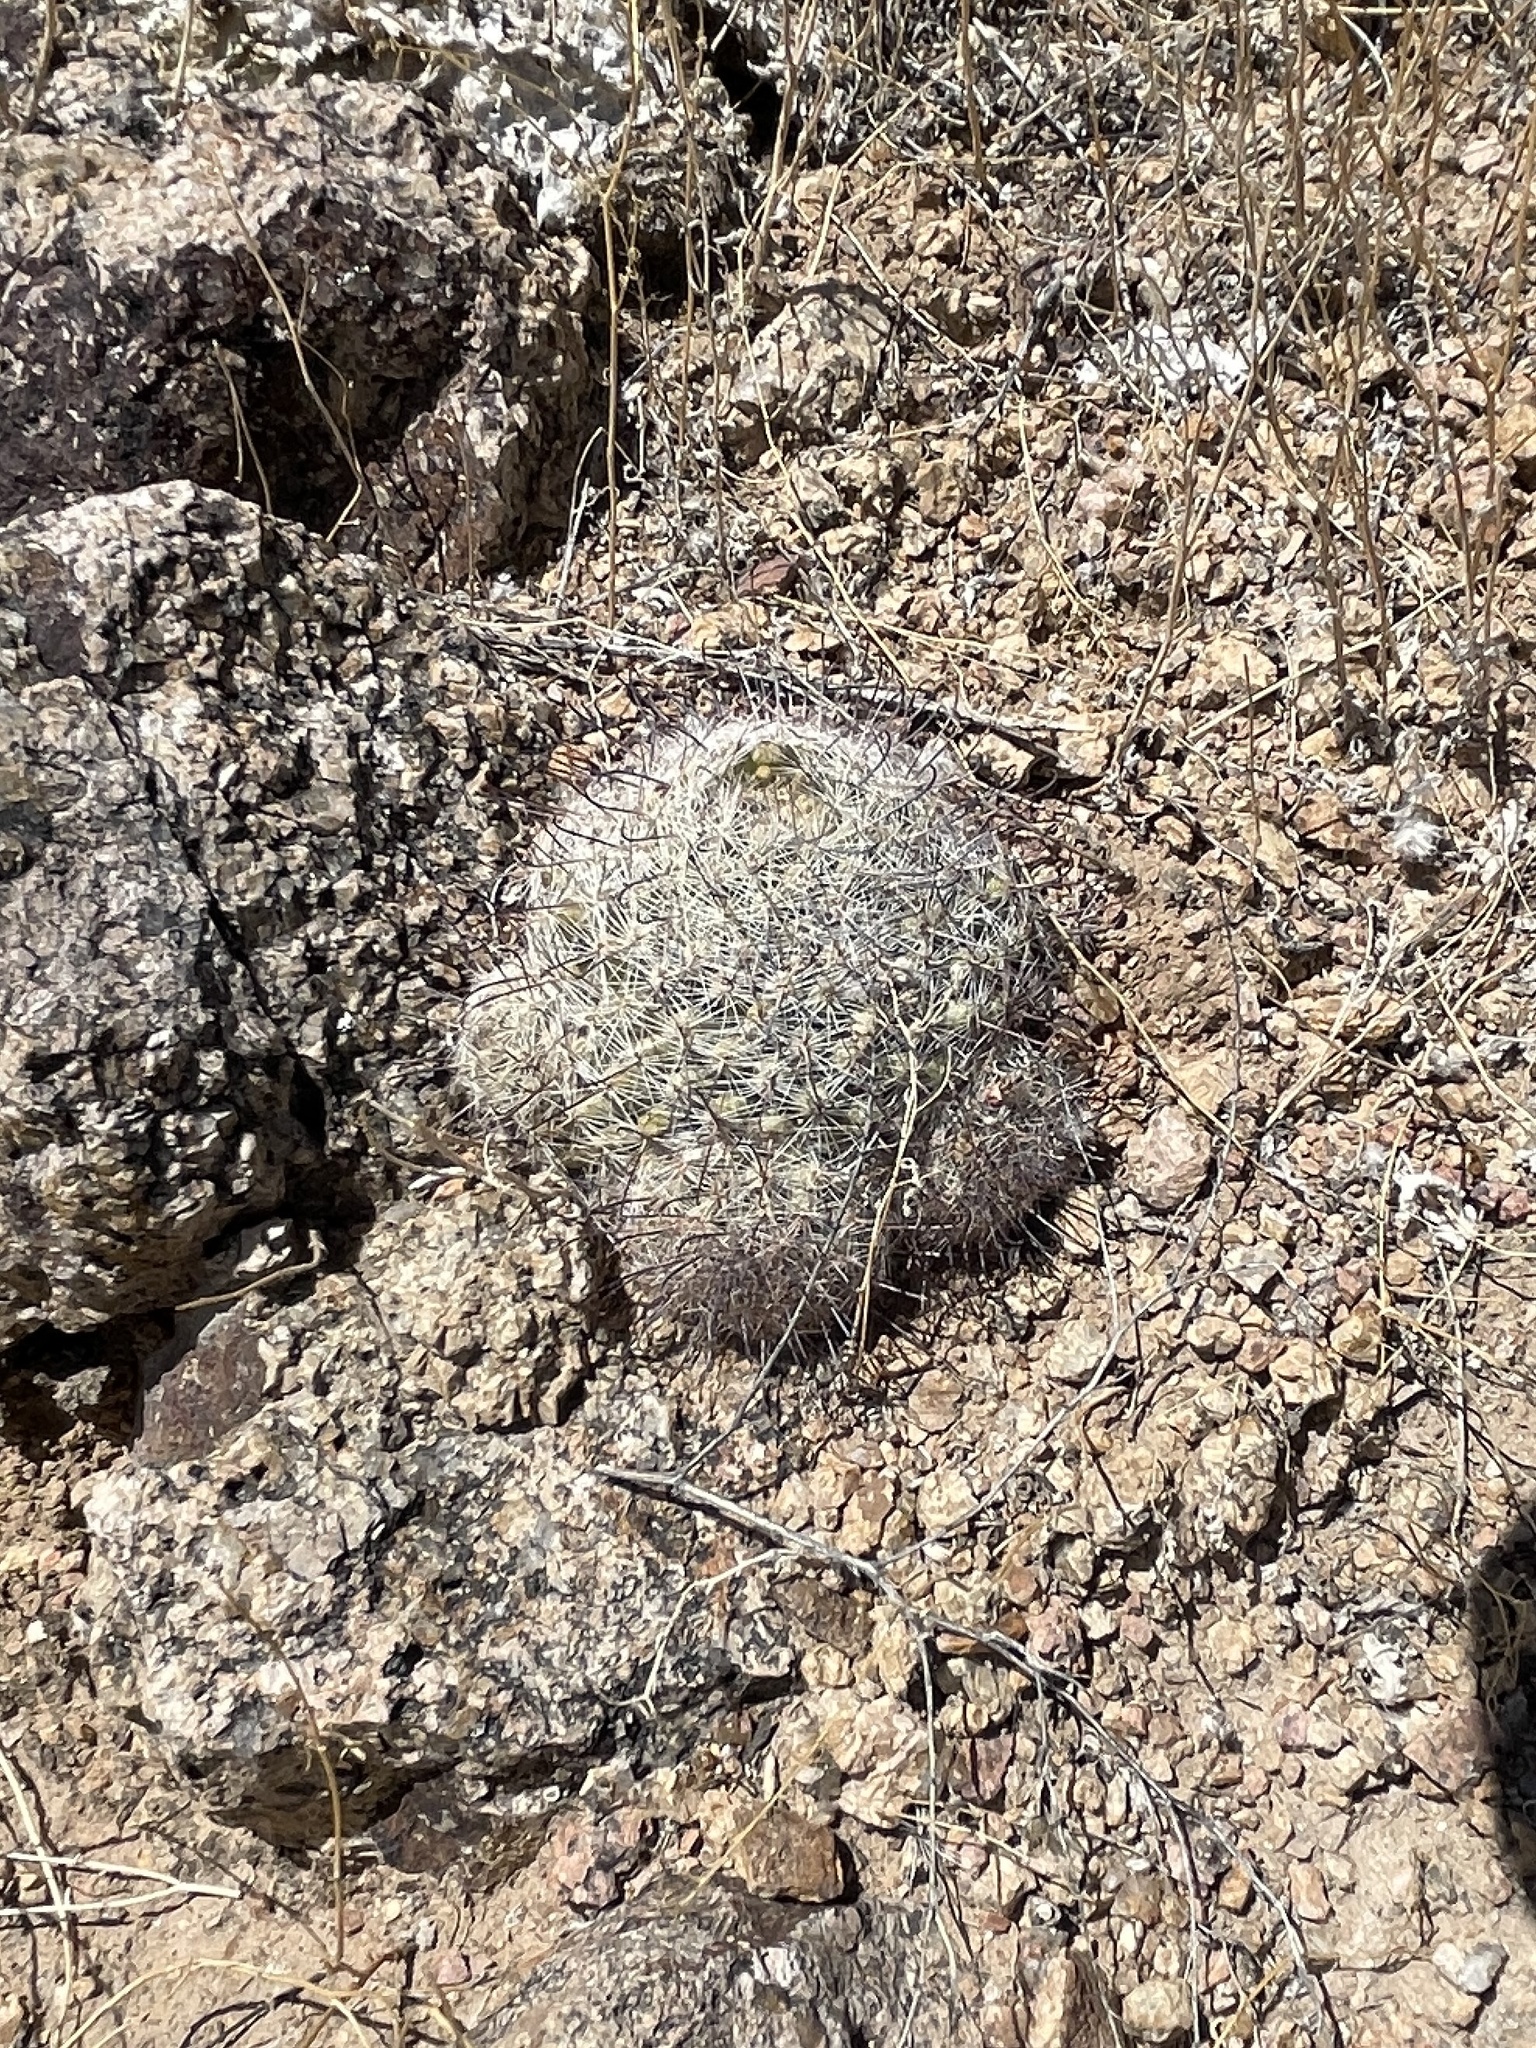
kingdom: Plantae
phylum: Tracheophyta
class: Magnoliopsida
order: Caryophyllales
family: Cactaceae
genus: Cochemiea
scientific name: Cochemiea grahamii
